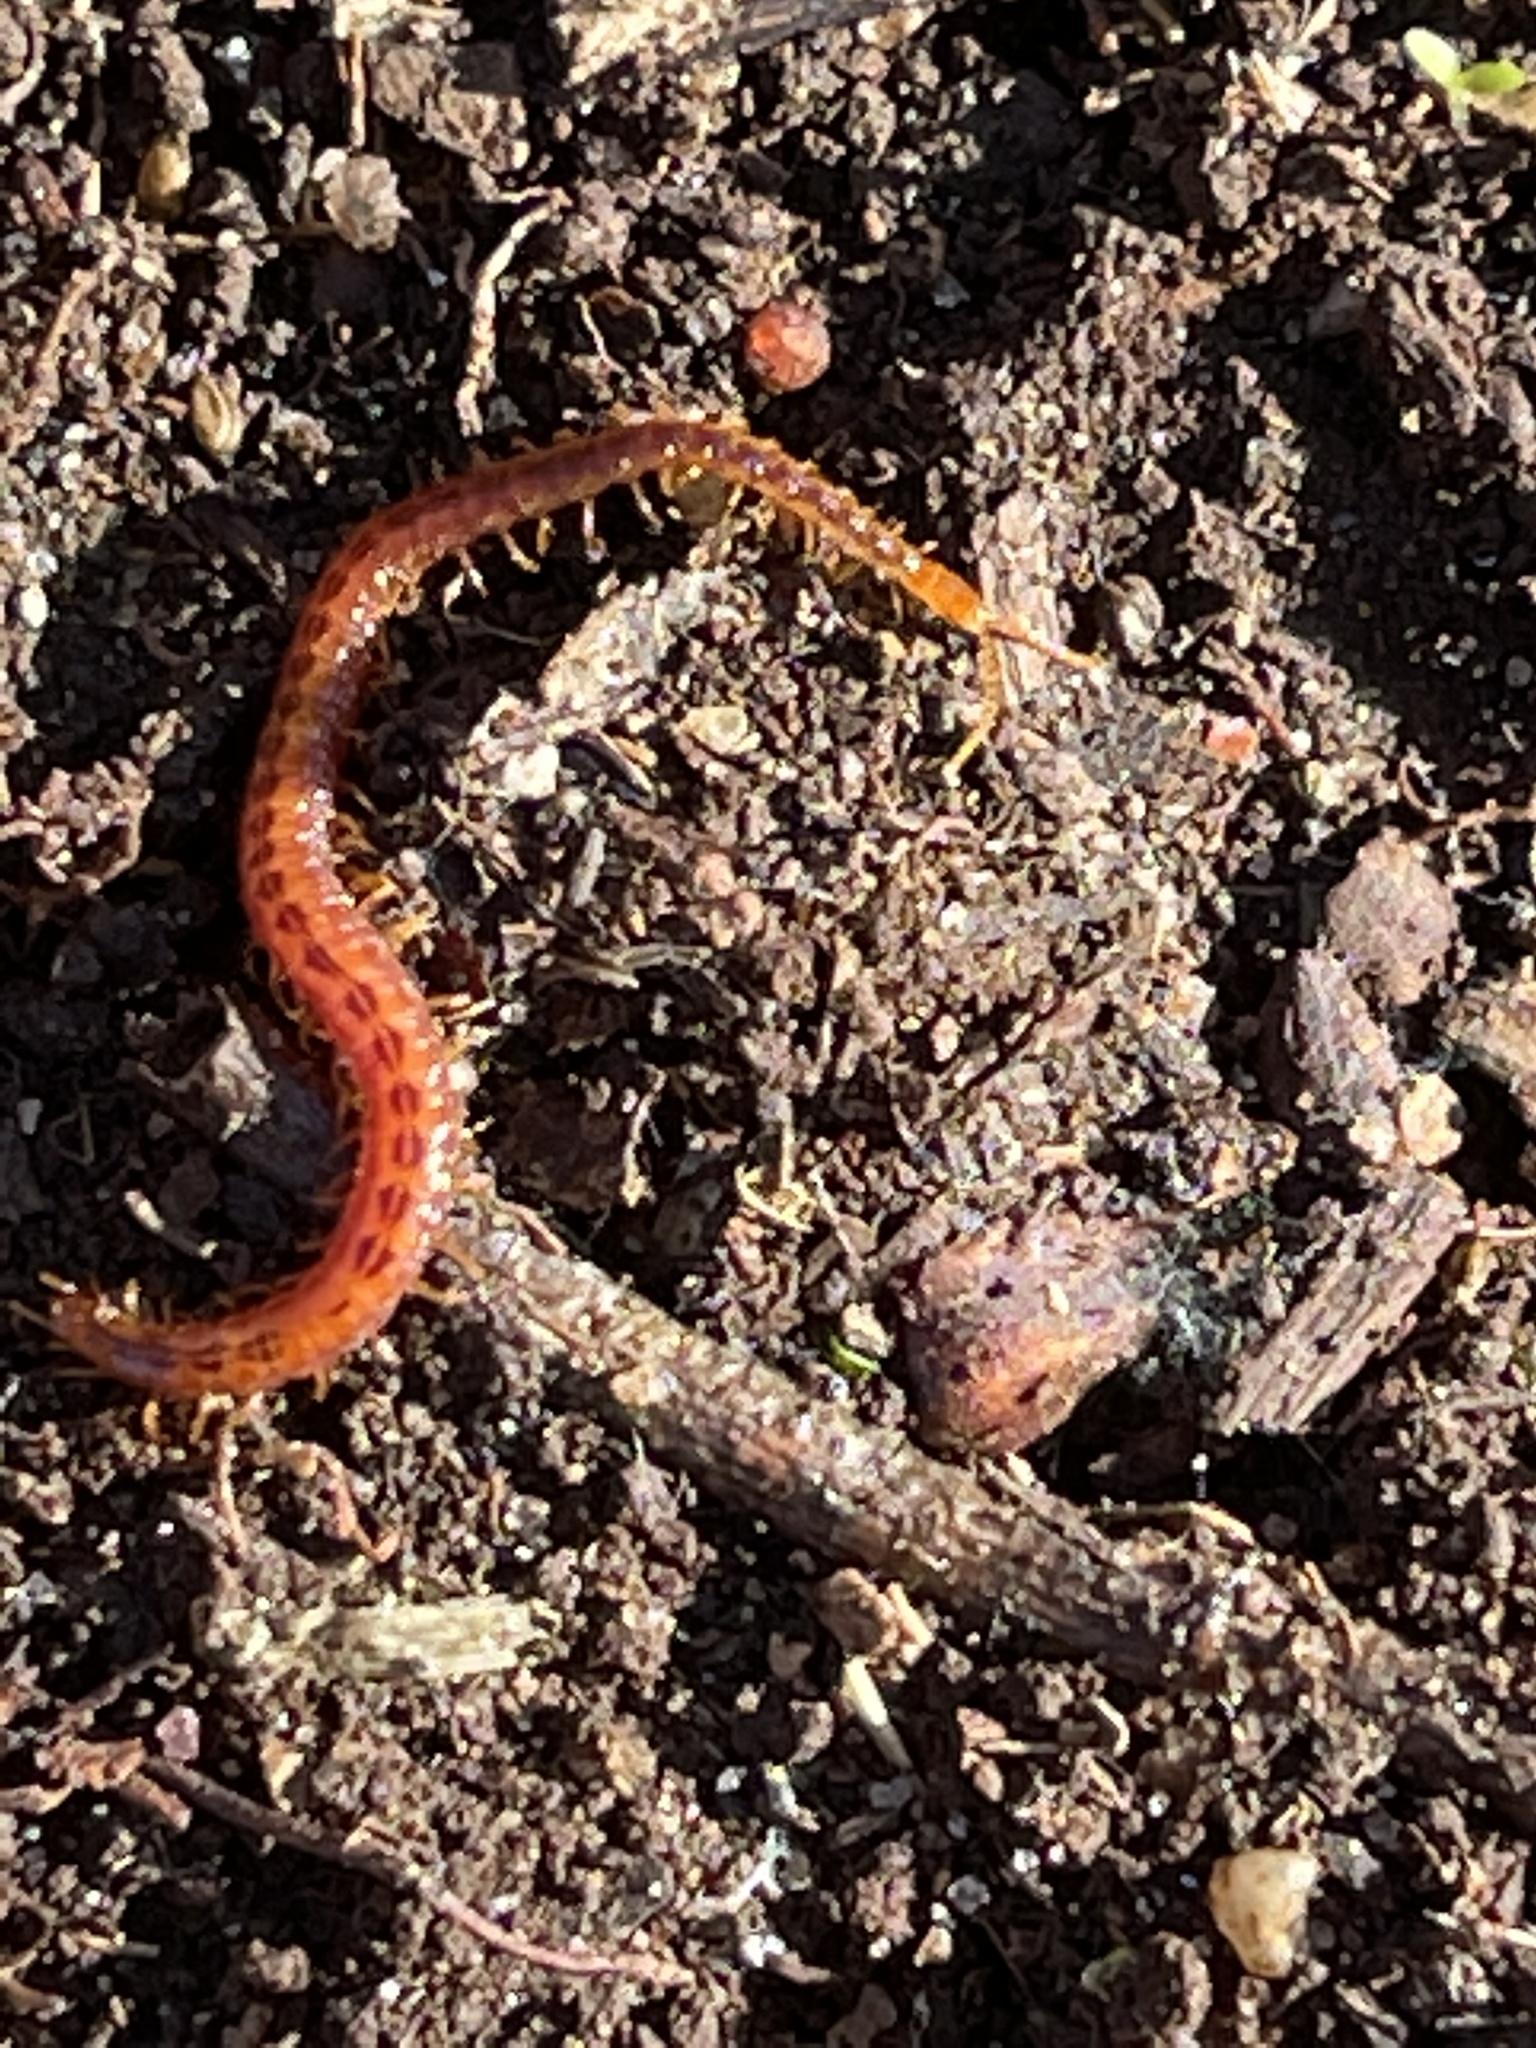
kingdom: Animalia
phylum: Arthropoda
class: Chilopoda
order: Geophilomorpha
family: Linotaeniidae
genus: Strigamia
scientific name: Strigamia branneri
